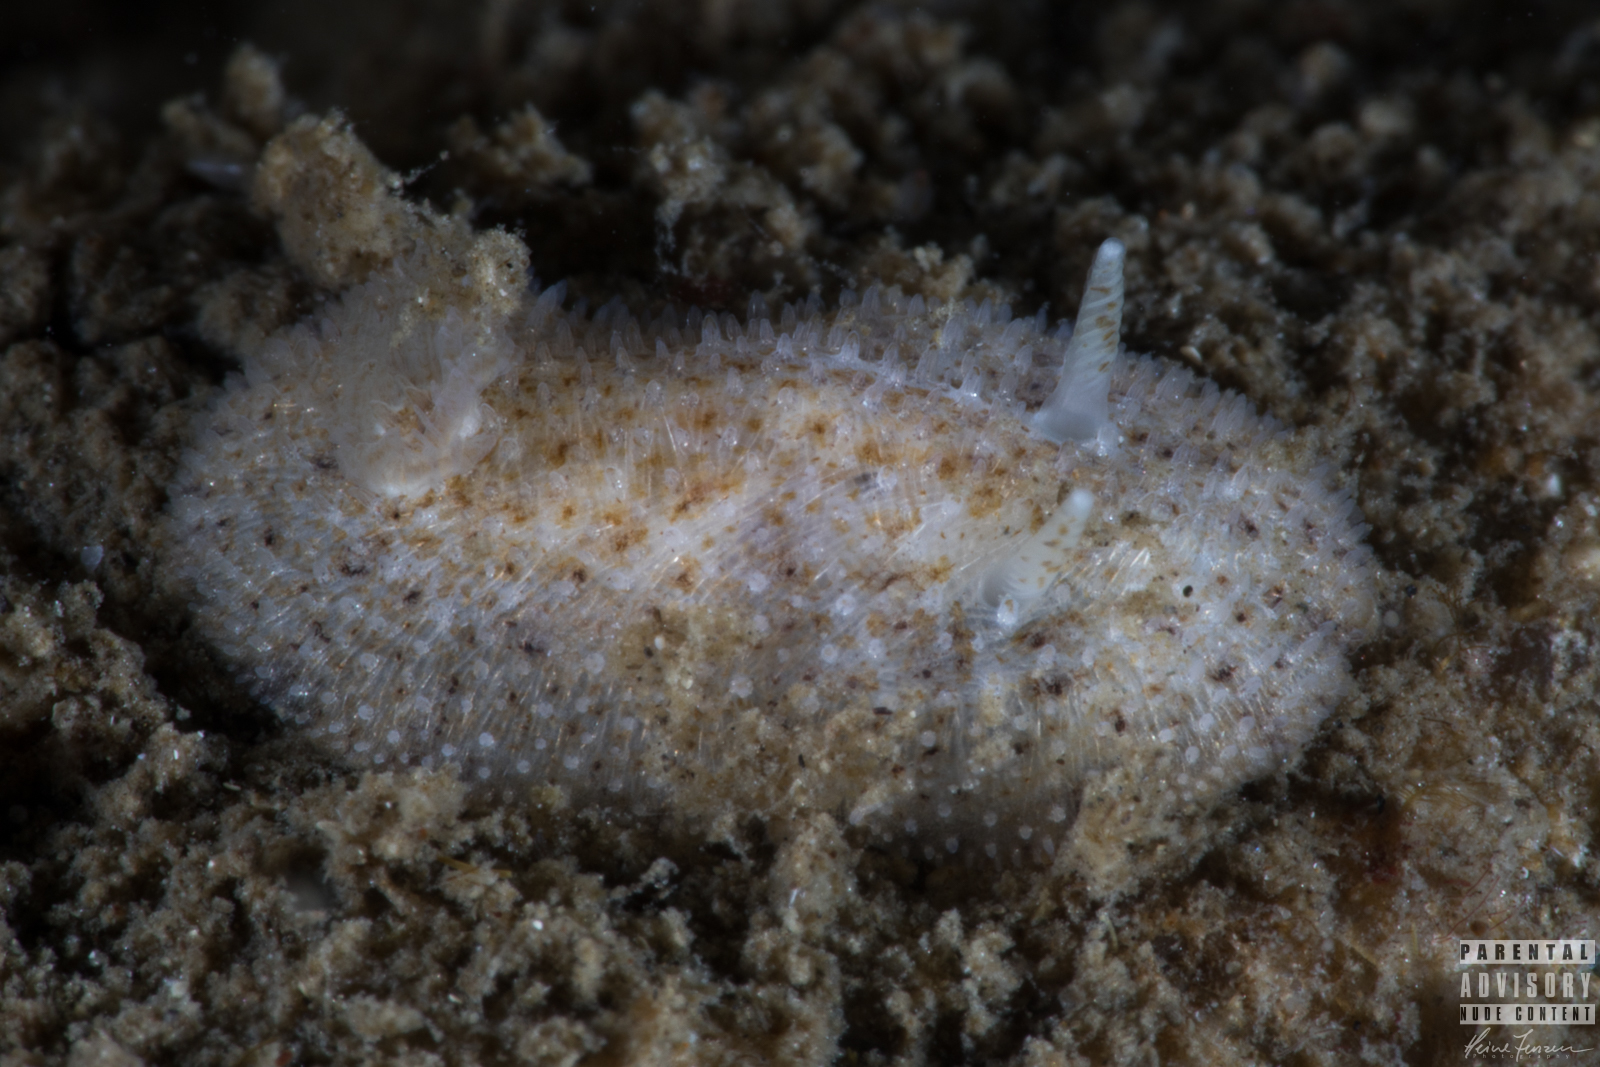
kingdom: Animalia
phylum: Mollusca
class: Gastropoda
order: Nudibranchia
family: Onchidorididae
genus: Idaliadoris
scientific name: Idaliadoris depressa
